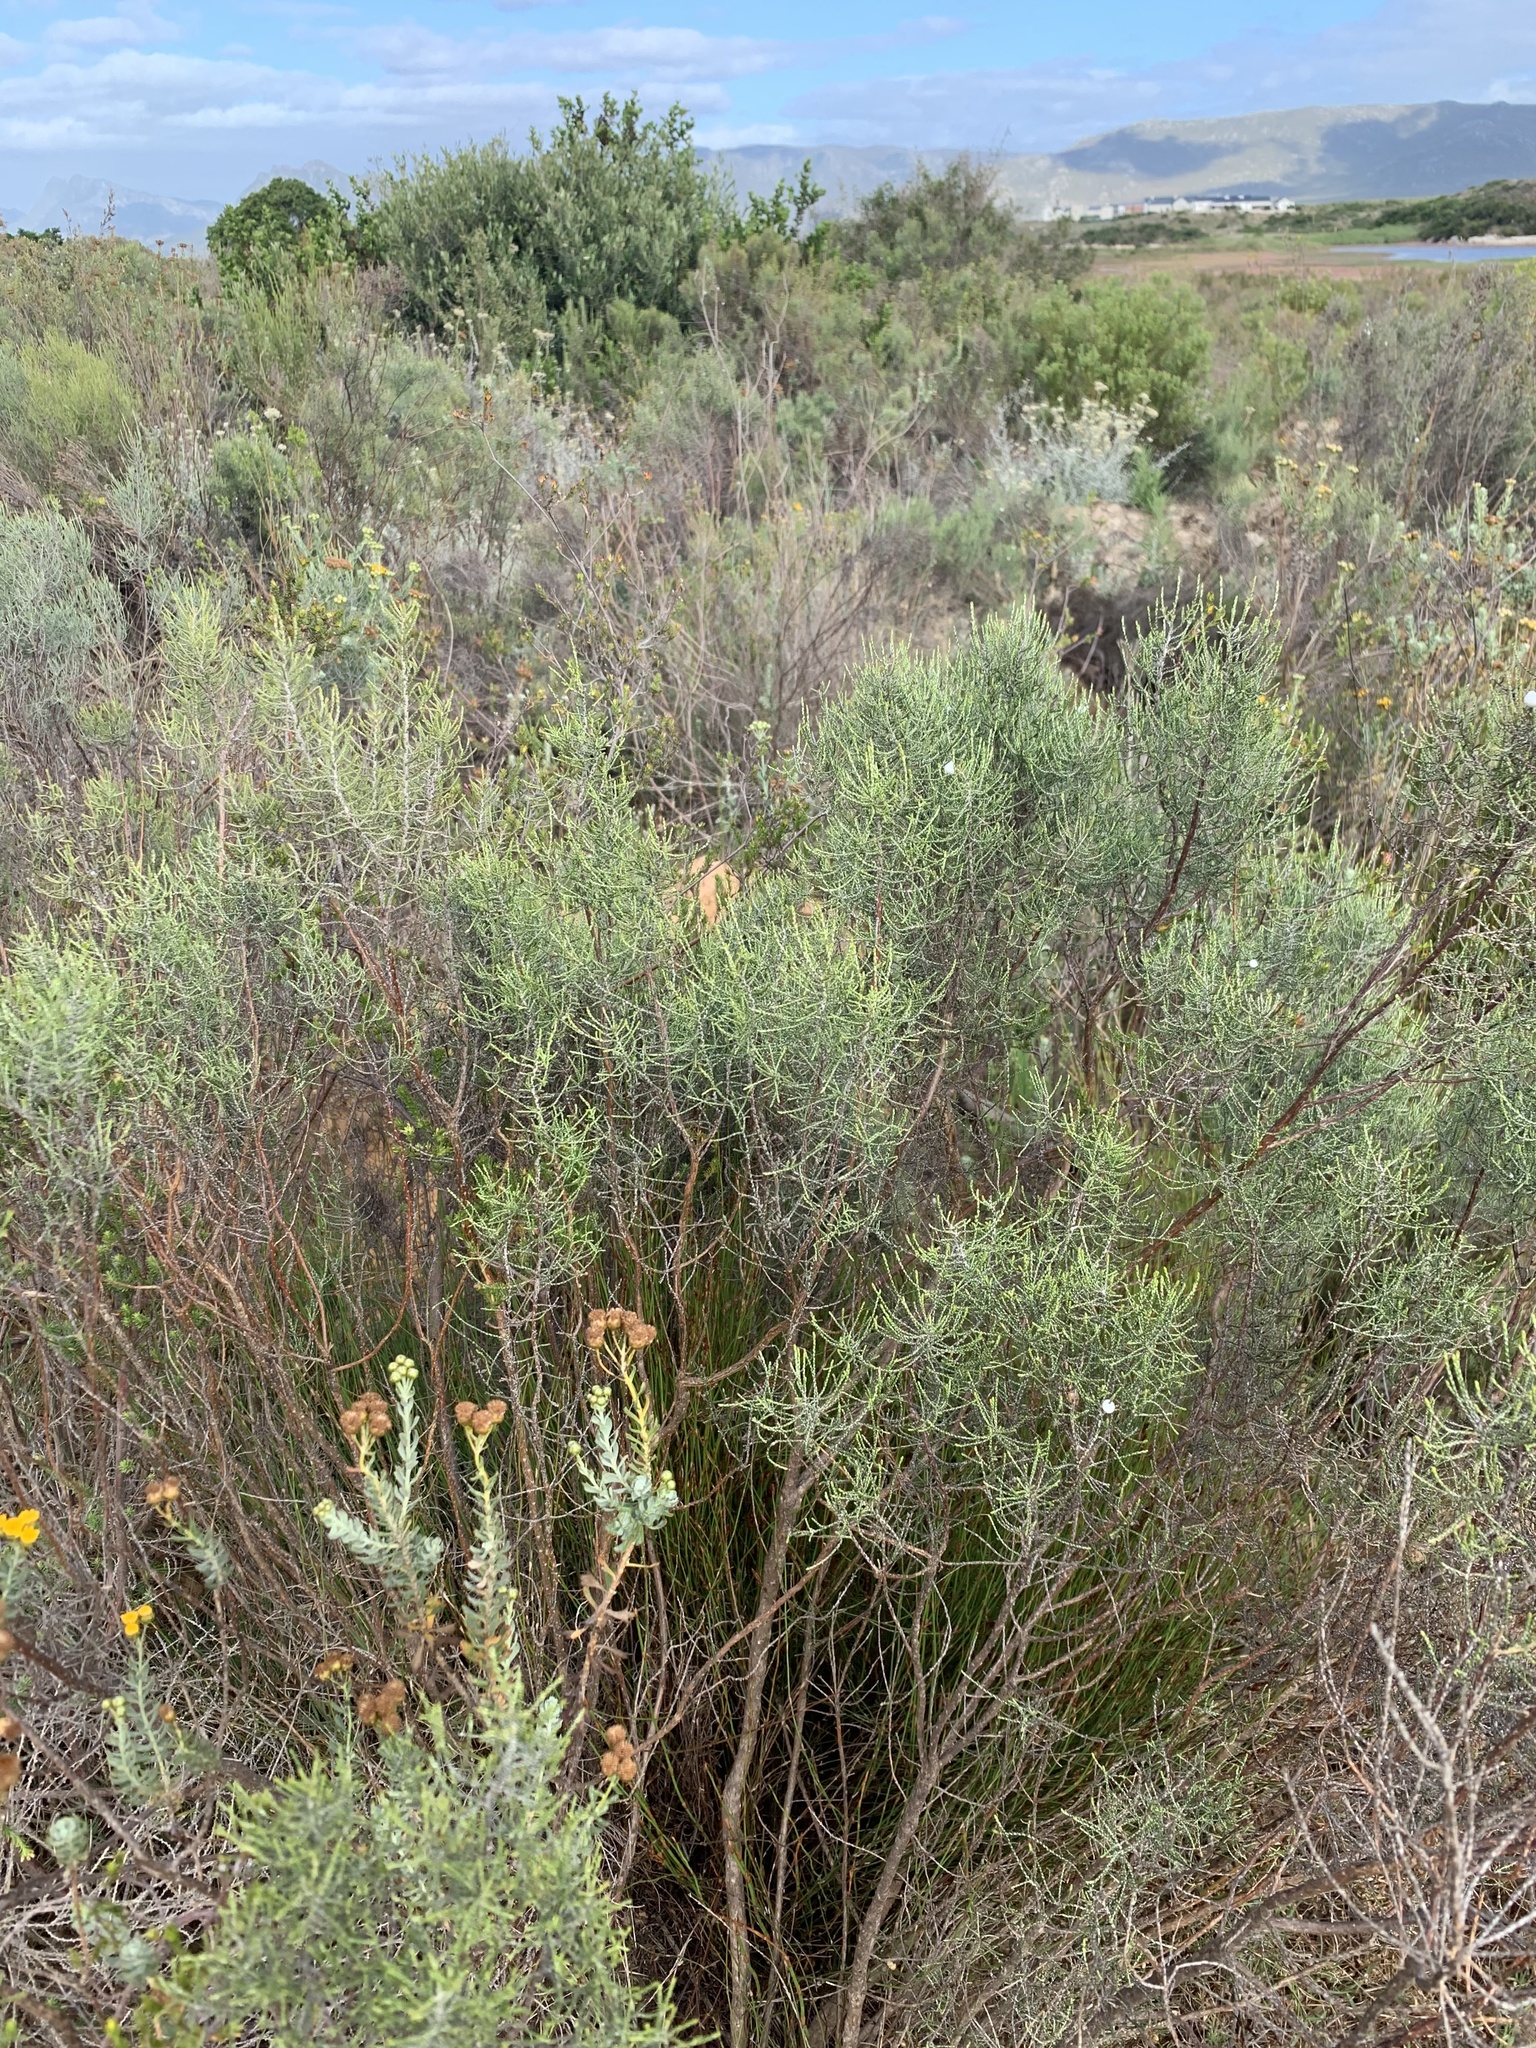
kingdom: Plantae
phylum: Tracheophyta
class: Magnoliopsida
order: Asterales
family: Asteraceae
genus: Dicerothamnus
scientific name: Dicerothamnus rhinocerotis
